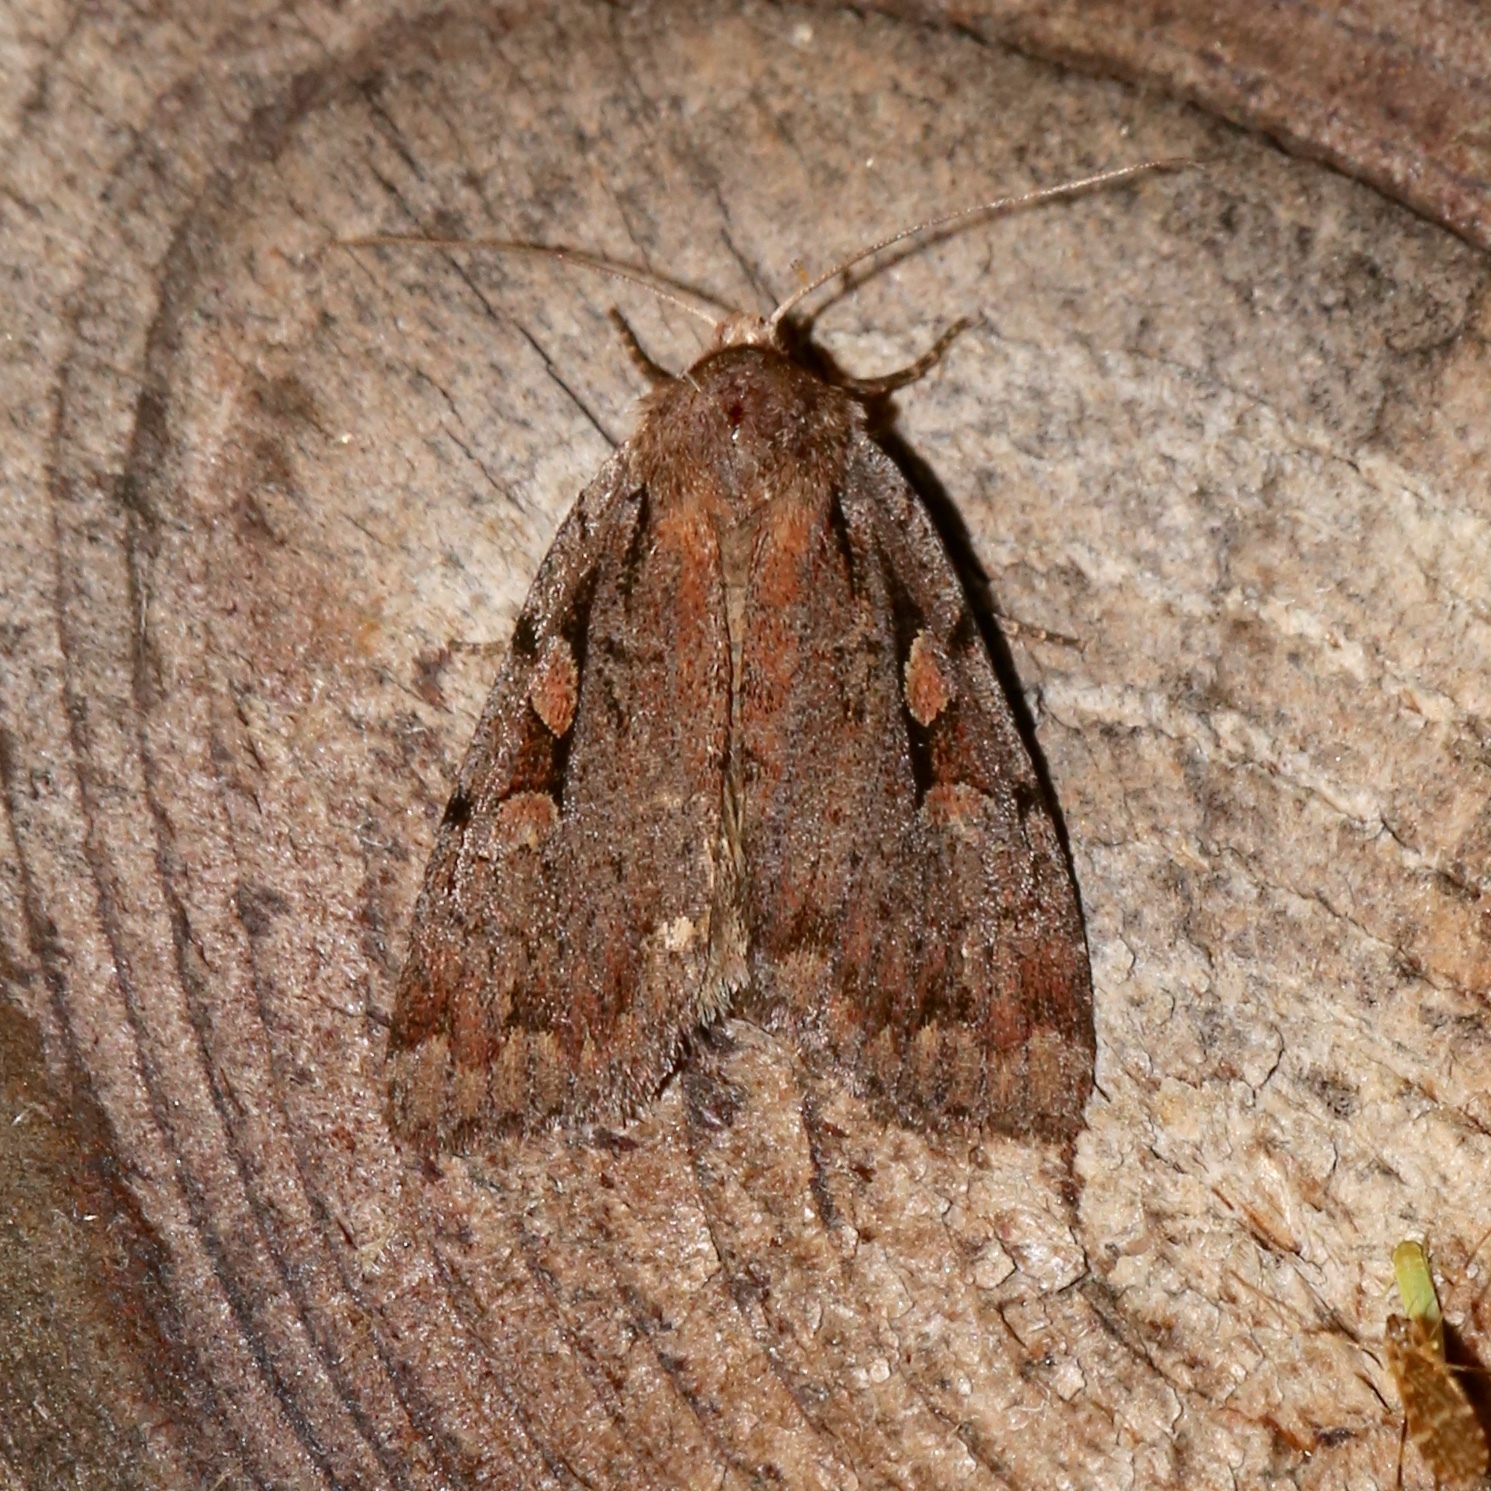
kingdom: Animalia
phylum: Arthropoda
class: Insecta
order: Lepidoptera
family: Noctuidae
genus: Xestia
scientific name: Xestia badicollis
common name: Northern variable dart
